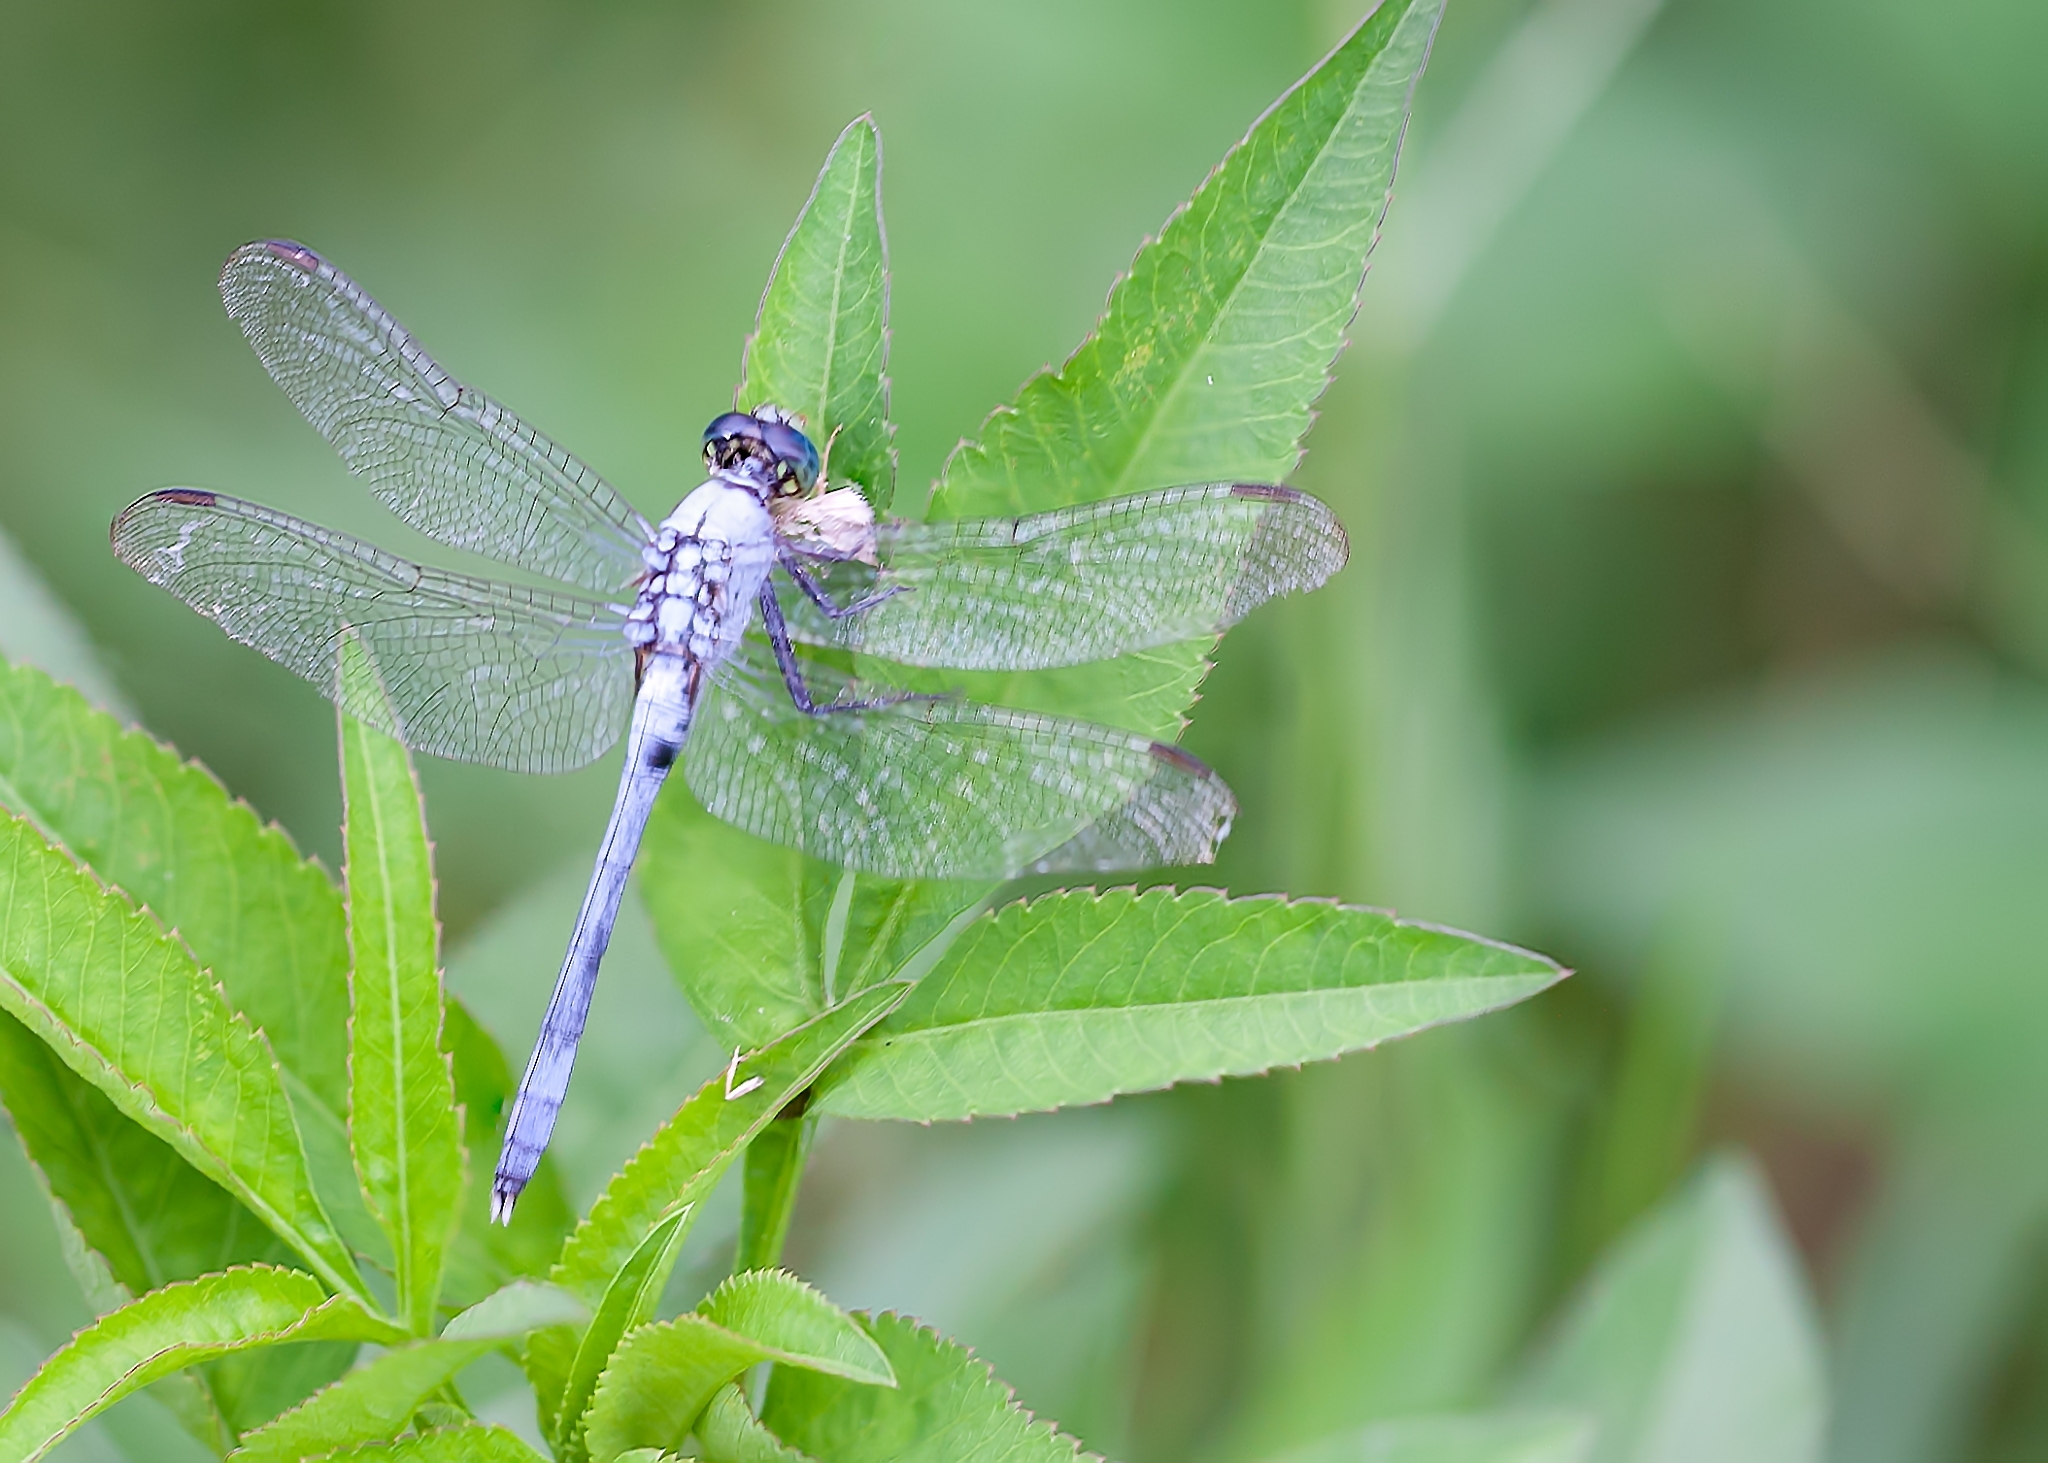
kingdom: Animalia
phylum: Arthropoda
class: Insecta
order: Odonata
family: Libellulidae
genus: Erythemis
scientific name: Erythemis simplicicollis
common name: Eastern pondhawk
